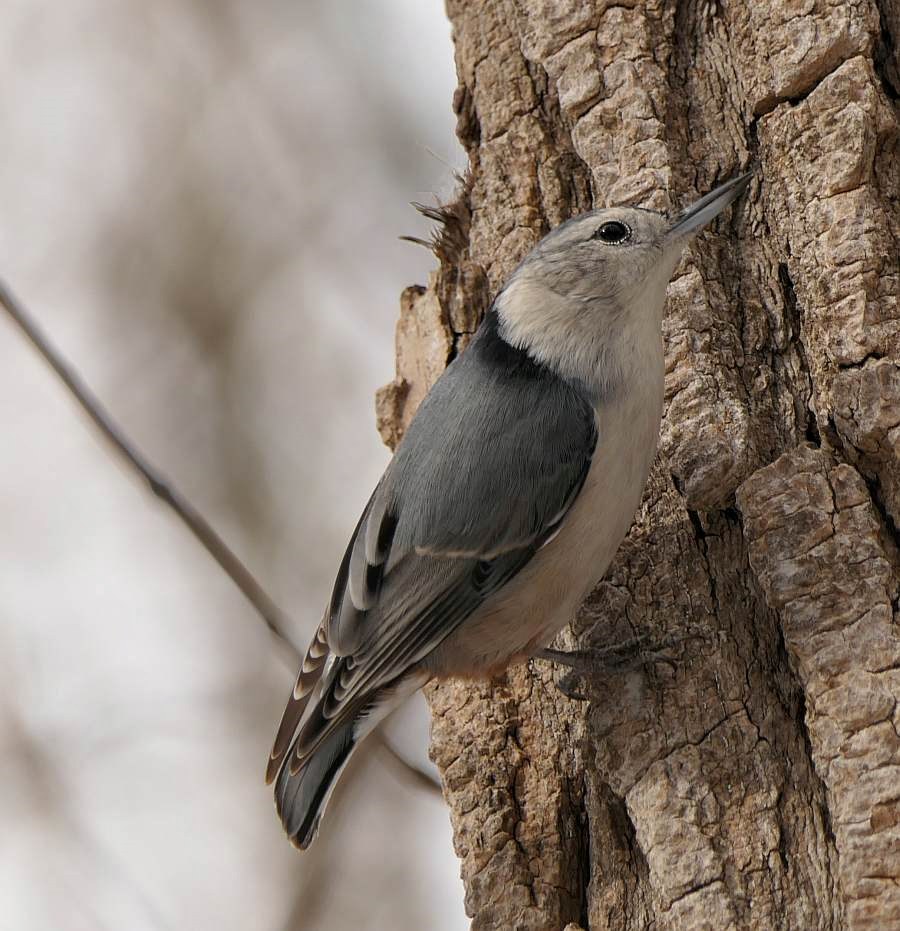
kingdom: Animalia
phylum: Chordata
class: Aves
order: Passeriformes
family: Sittidae
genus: Sitta
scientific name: Sitta carolinensis
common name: White-breasted nuthatch
